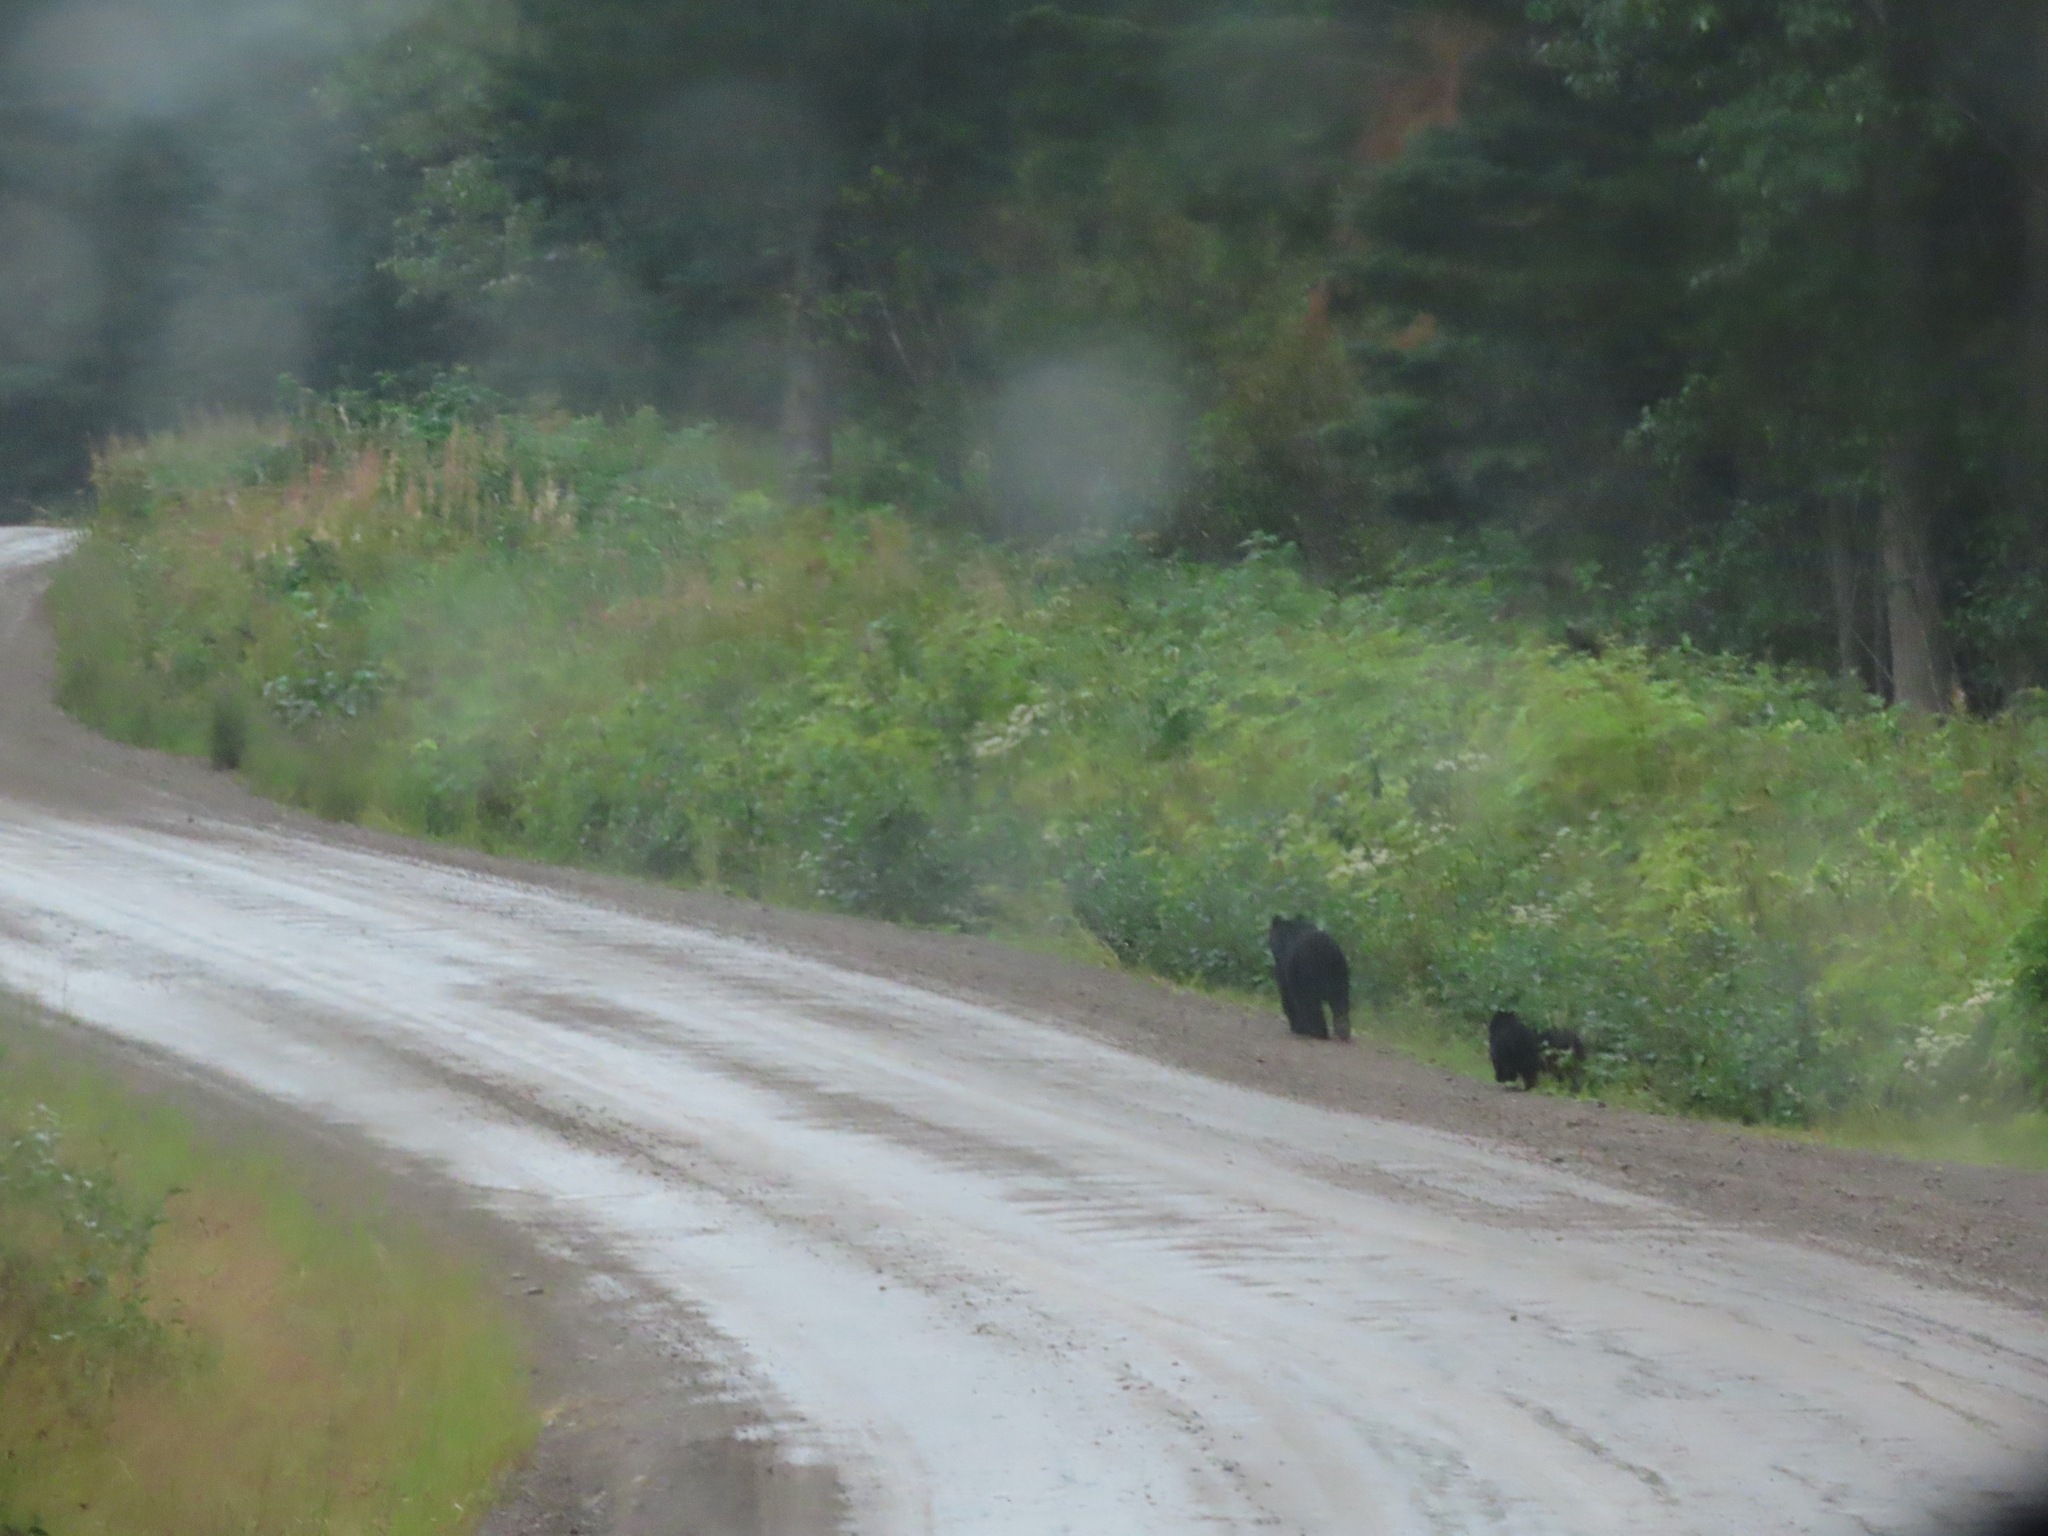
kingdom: Animalia
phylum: Chordata
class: Mammalia
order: Carnivora
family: Ursidae
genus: Ursus
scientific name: Ursus americanus
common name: American black bear
